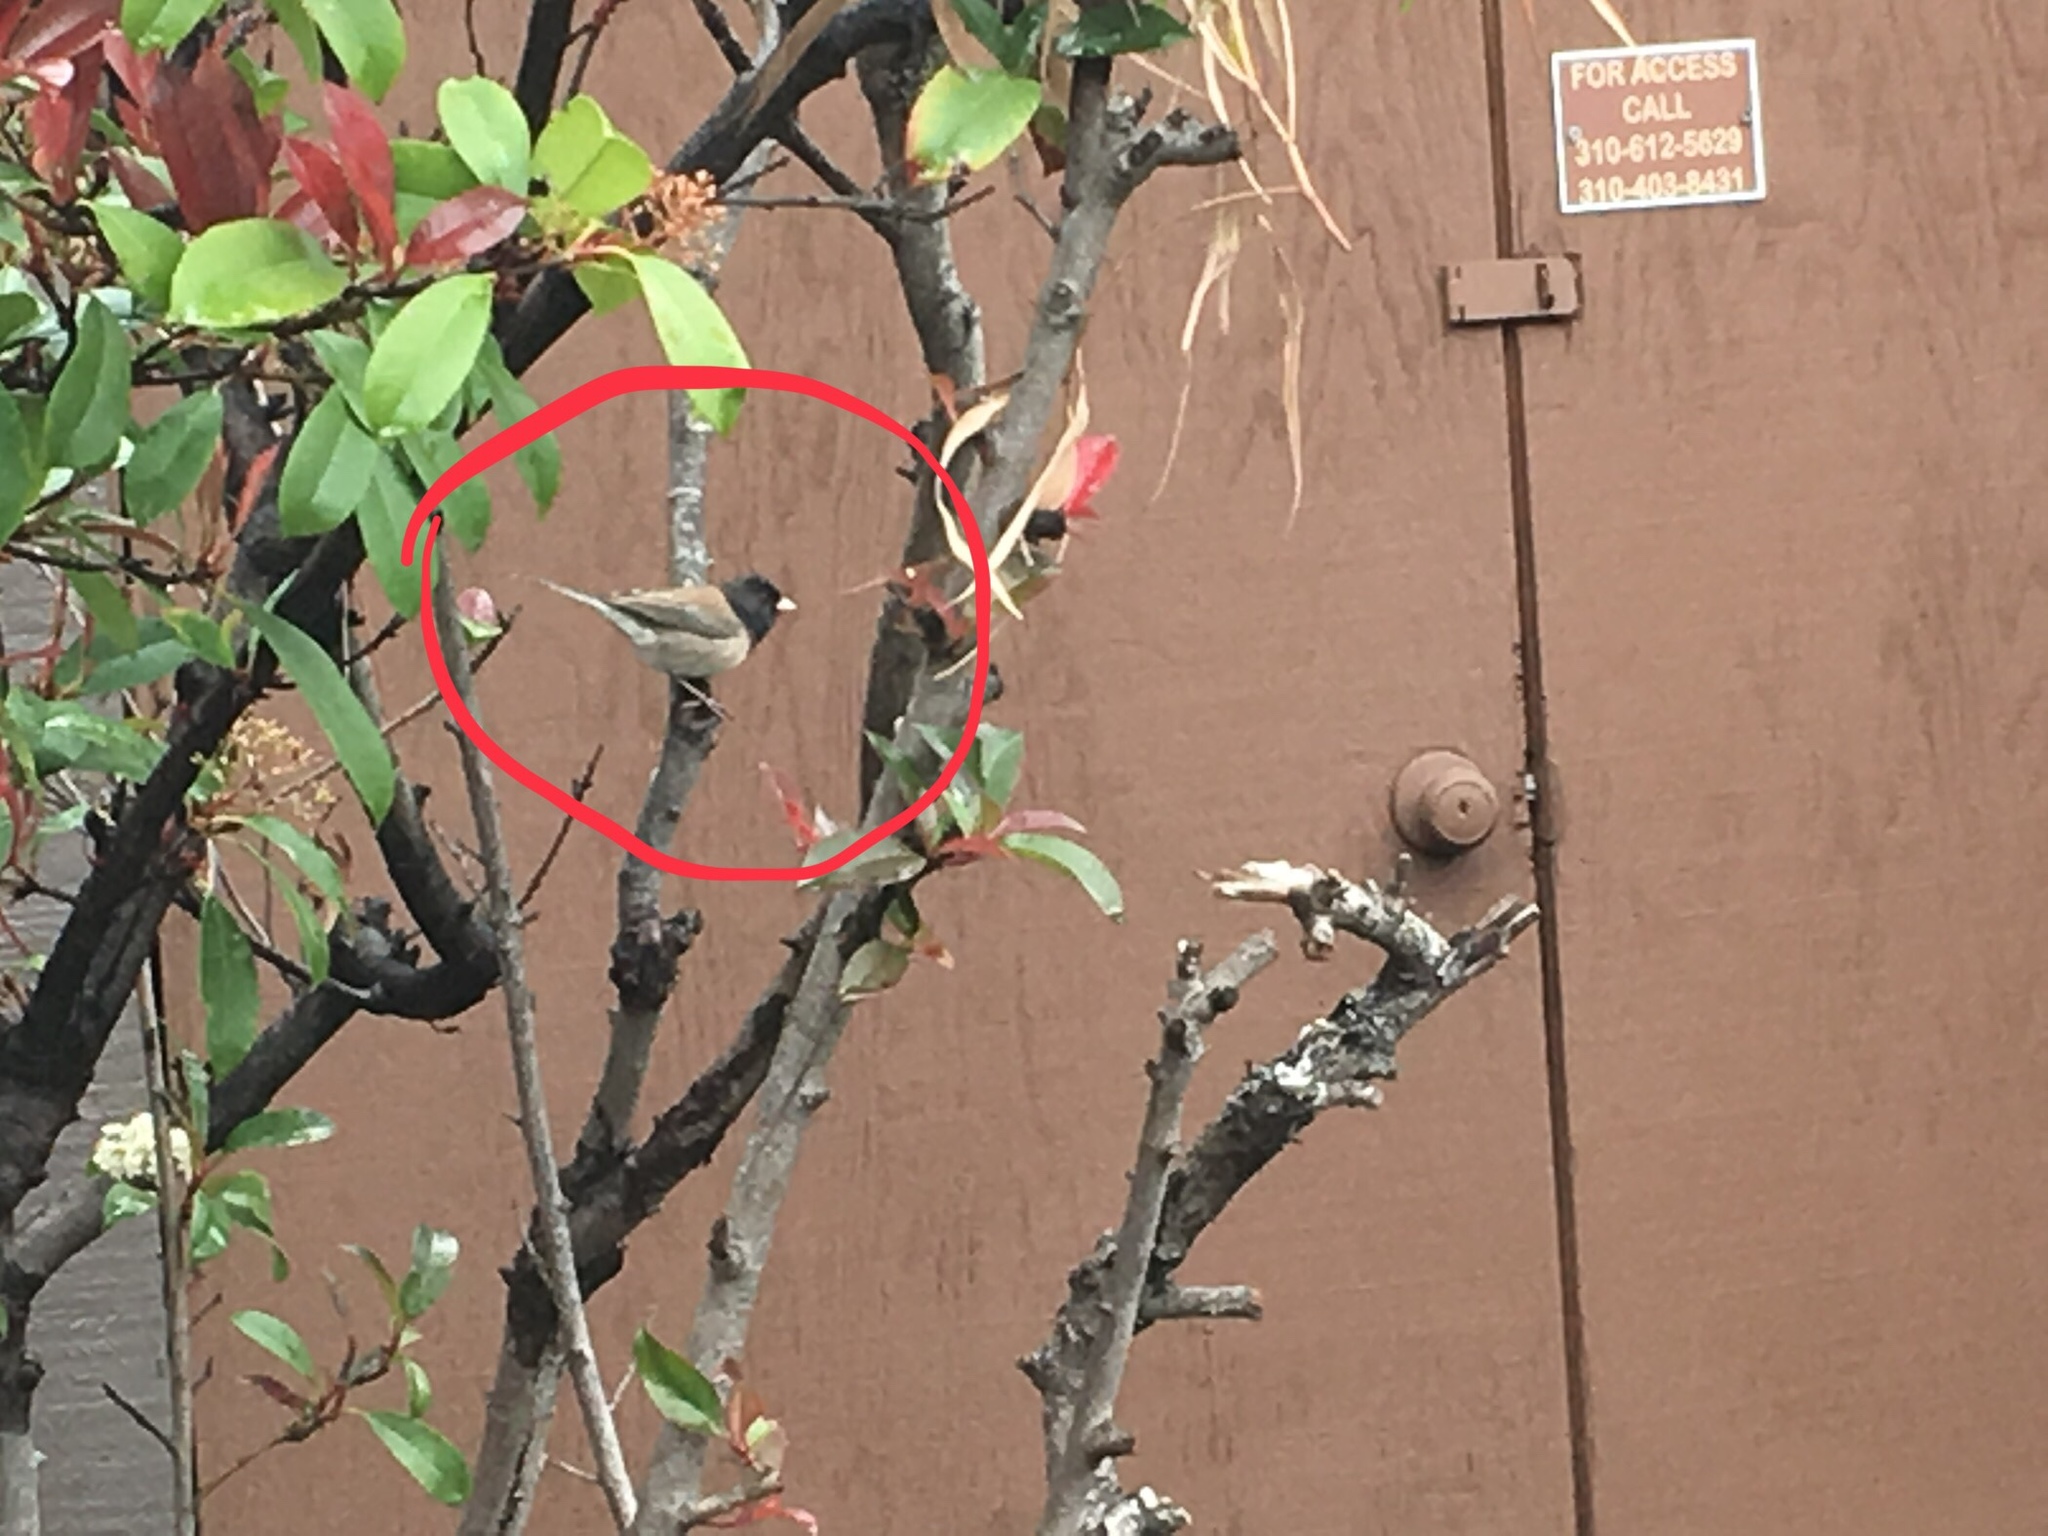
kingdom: Animalia
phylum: Chordata
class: Aves
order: Passeriformes
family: Passerellidae
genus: Junco
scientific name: Junco hyemalis
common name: Dark-eyed junco
